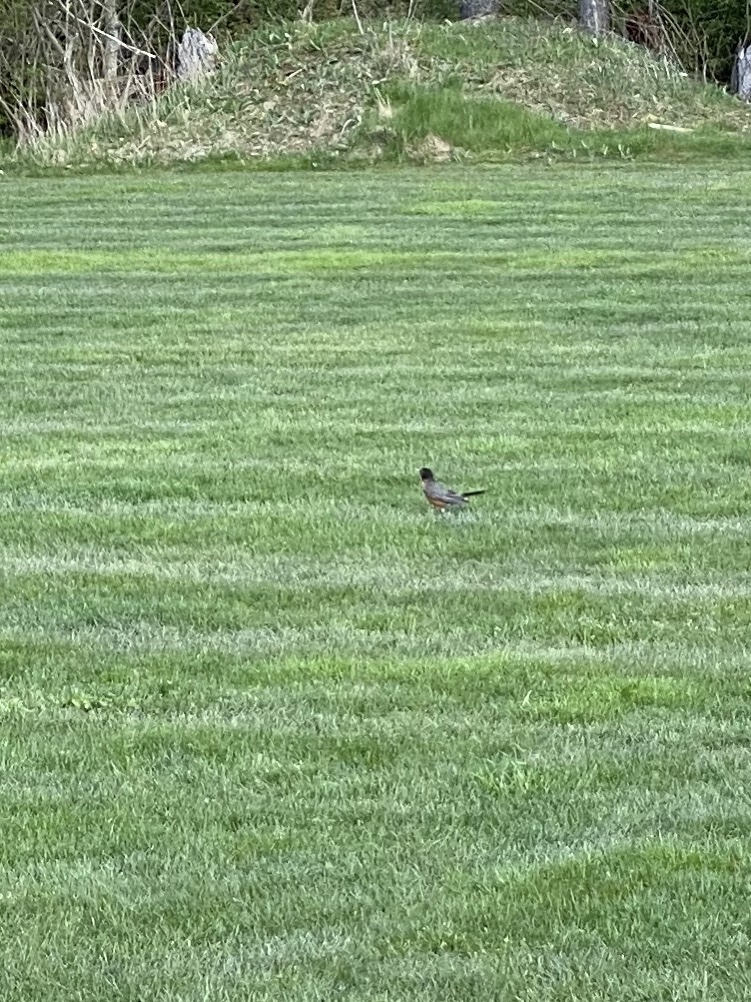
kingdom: Animalia
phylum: Chordata
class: Aves
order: Passeriformes
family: Turdidae
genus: Turdus
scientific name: Turdus migratorius
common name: American robin
